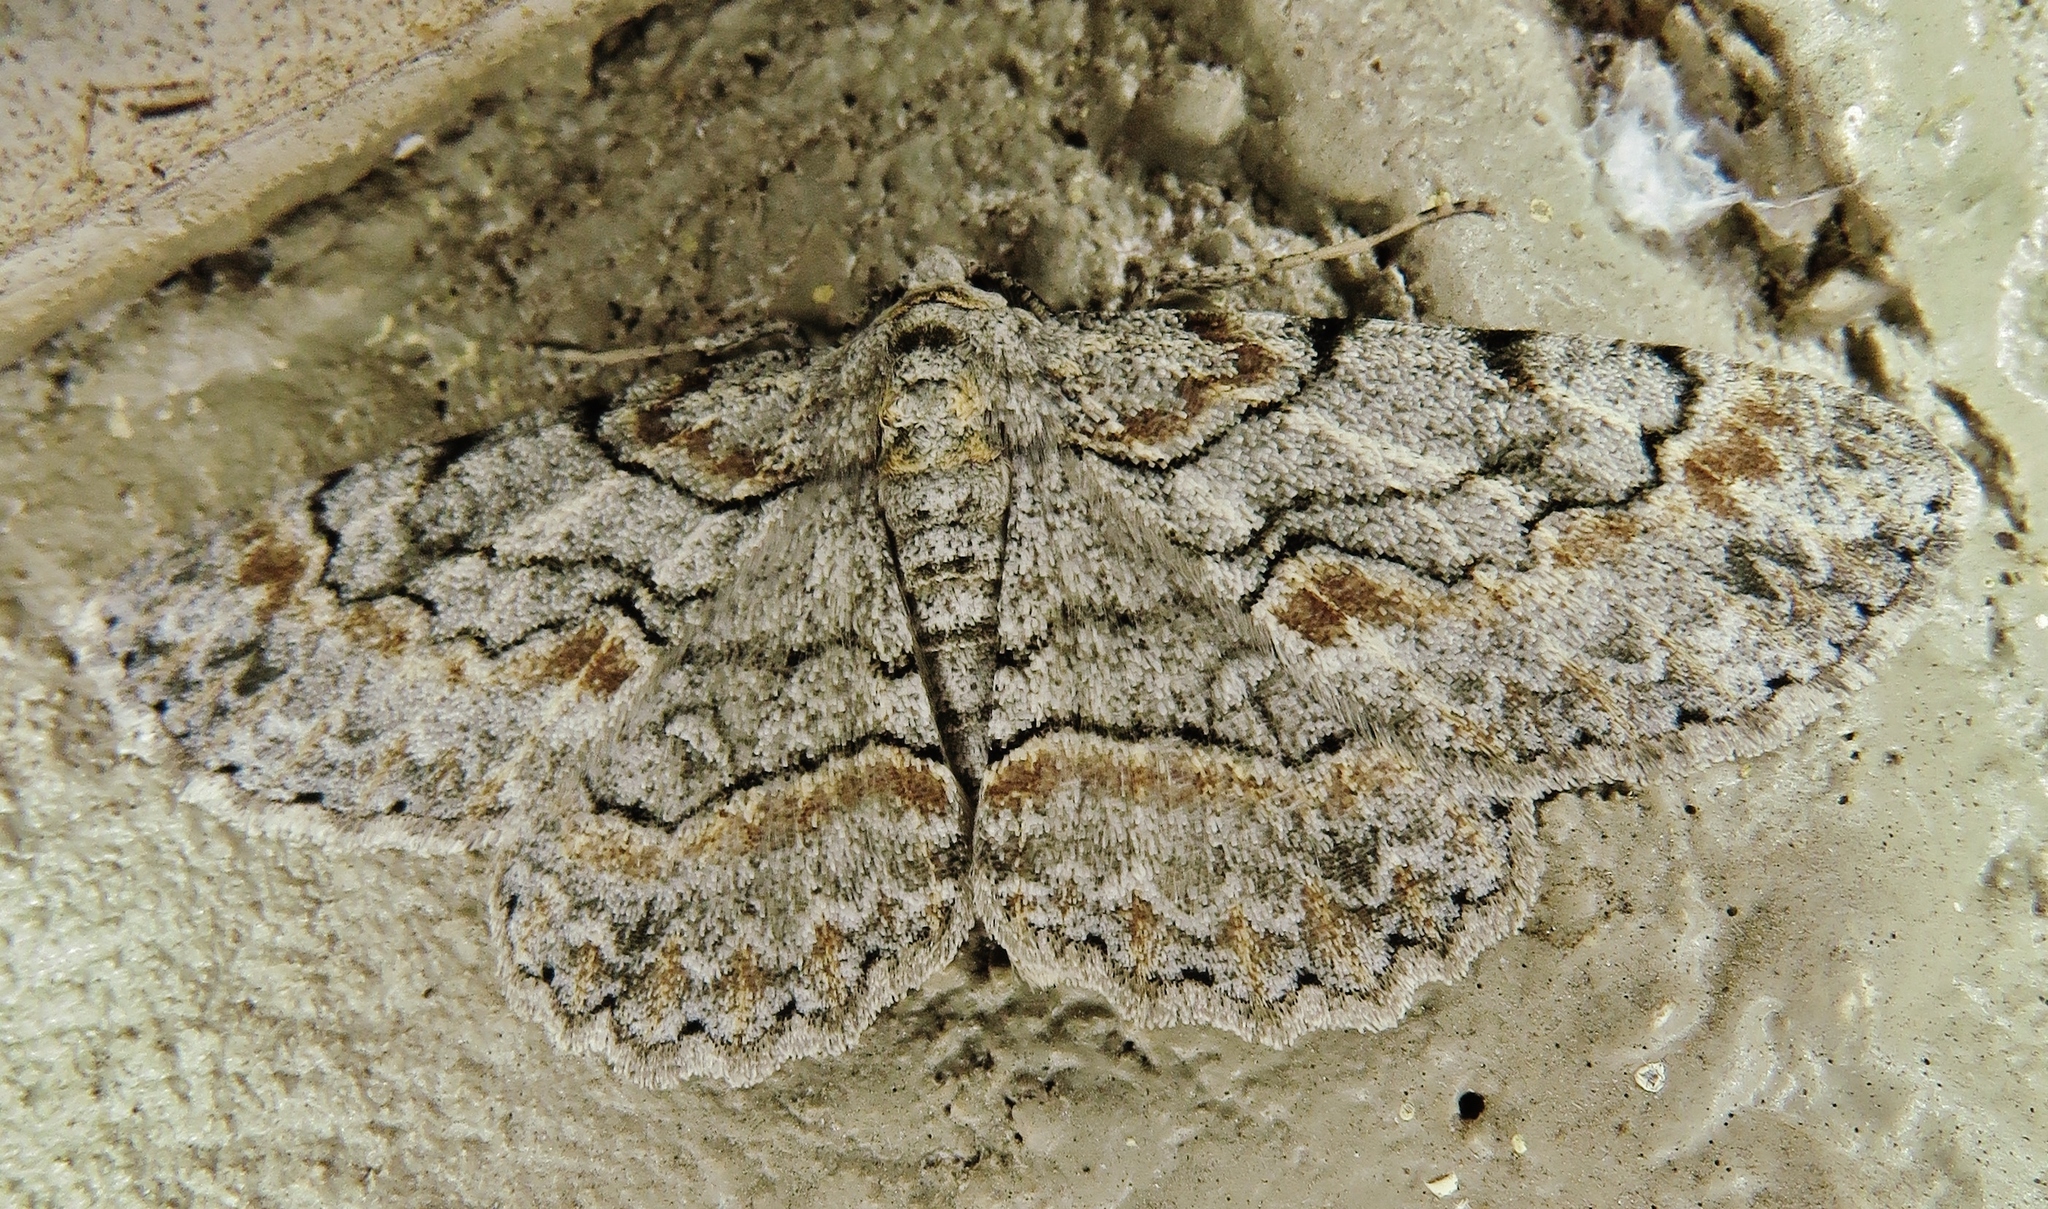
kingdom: Animalia
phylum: Arthropoda
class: Insecta
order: Lepidoptera
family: Geometridae
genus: Iridopsis
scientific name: Iridopsis defectaria
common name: Brown-shaded gray
